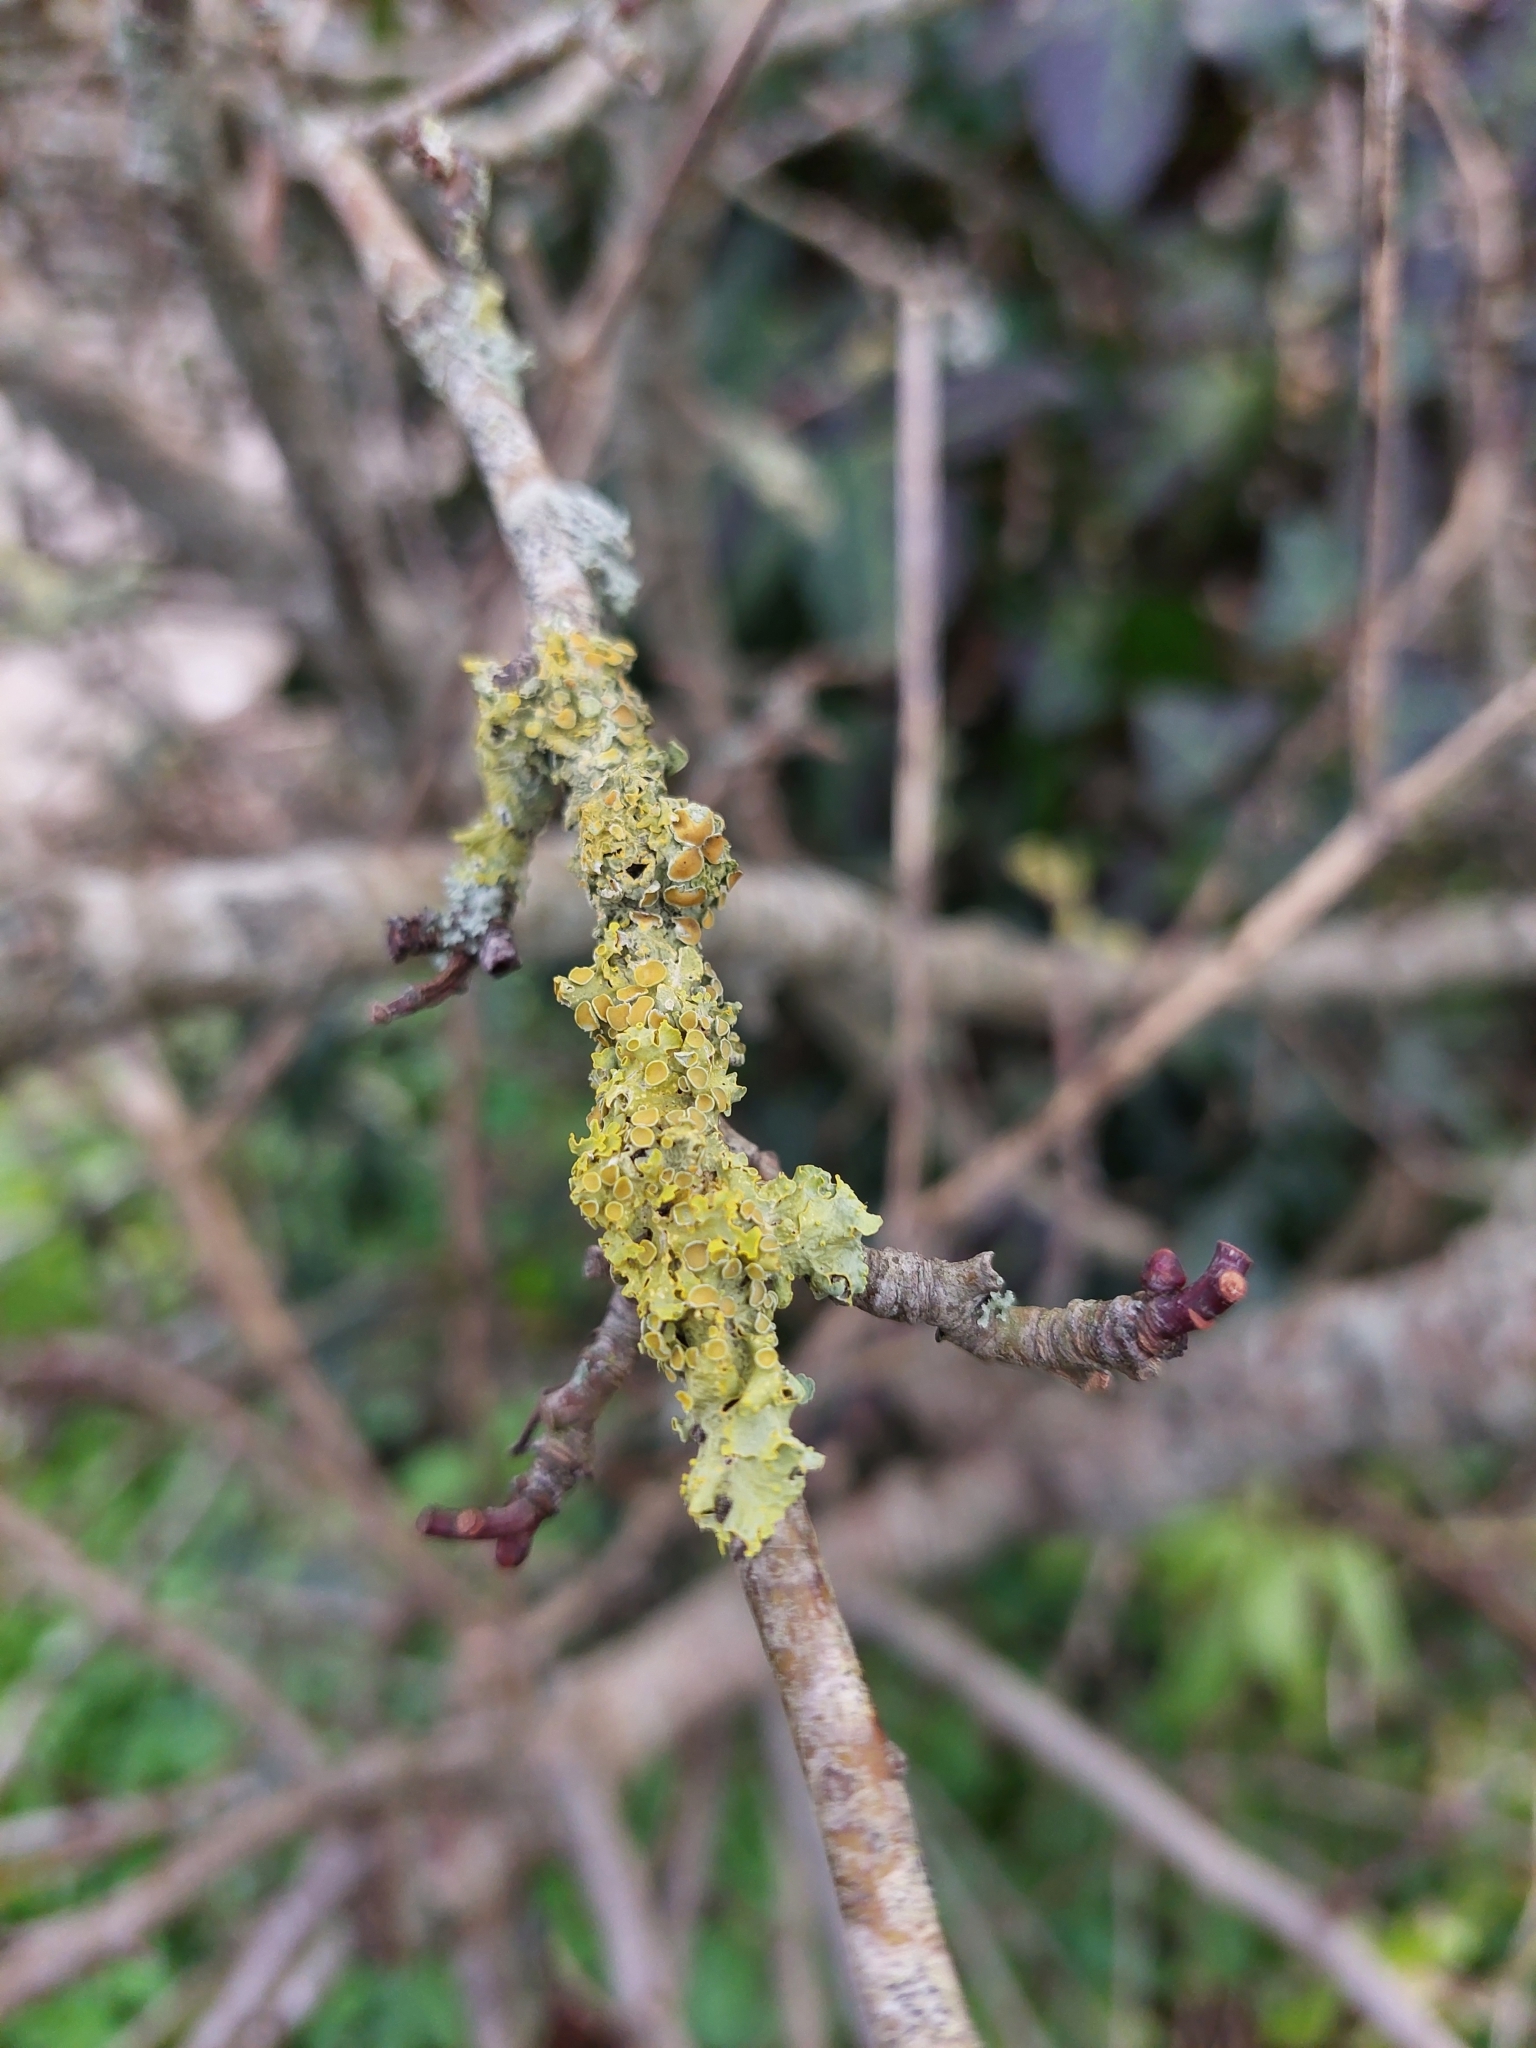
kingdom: Fungi
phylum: Ascomycota
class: Lecanoromycetes
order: Teloschistales
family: Teloschistaceae
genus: Xanthoria
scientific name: Xanthoria parietina
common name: Common orange lichen
